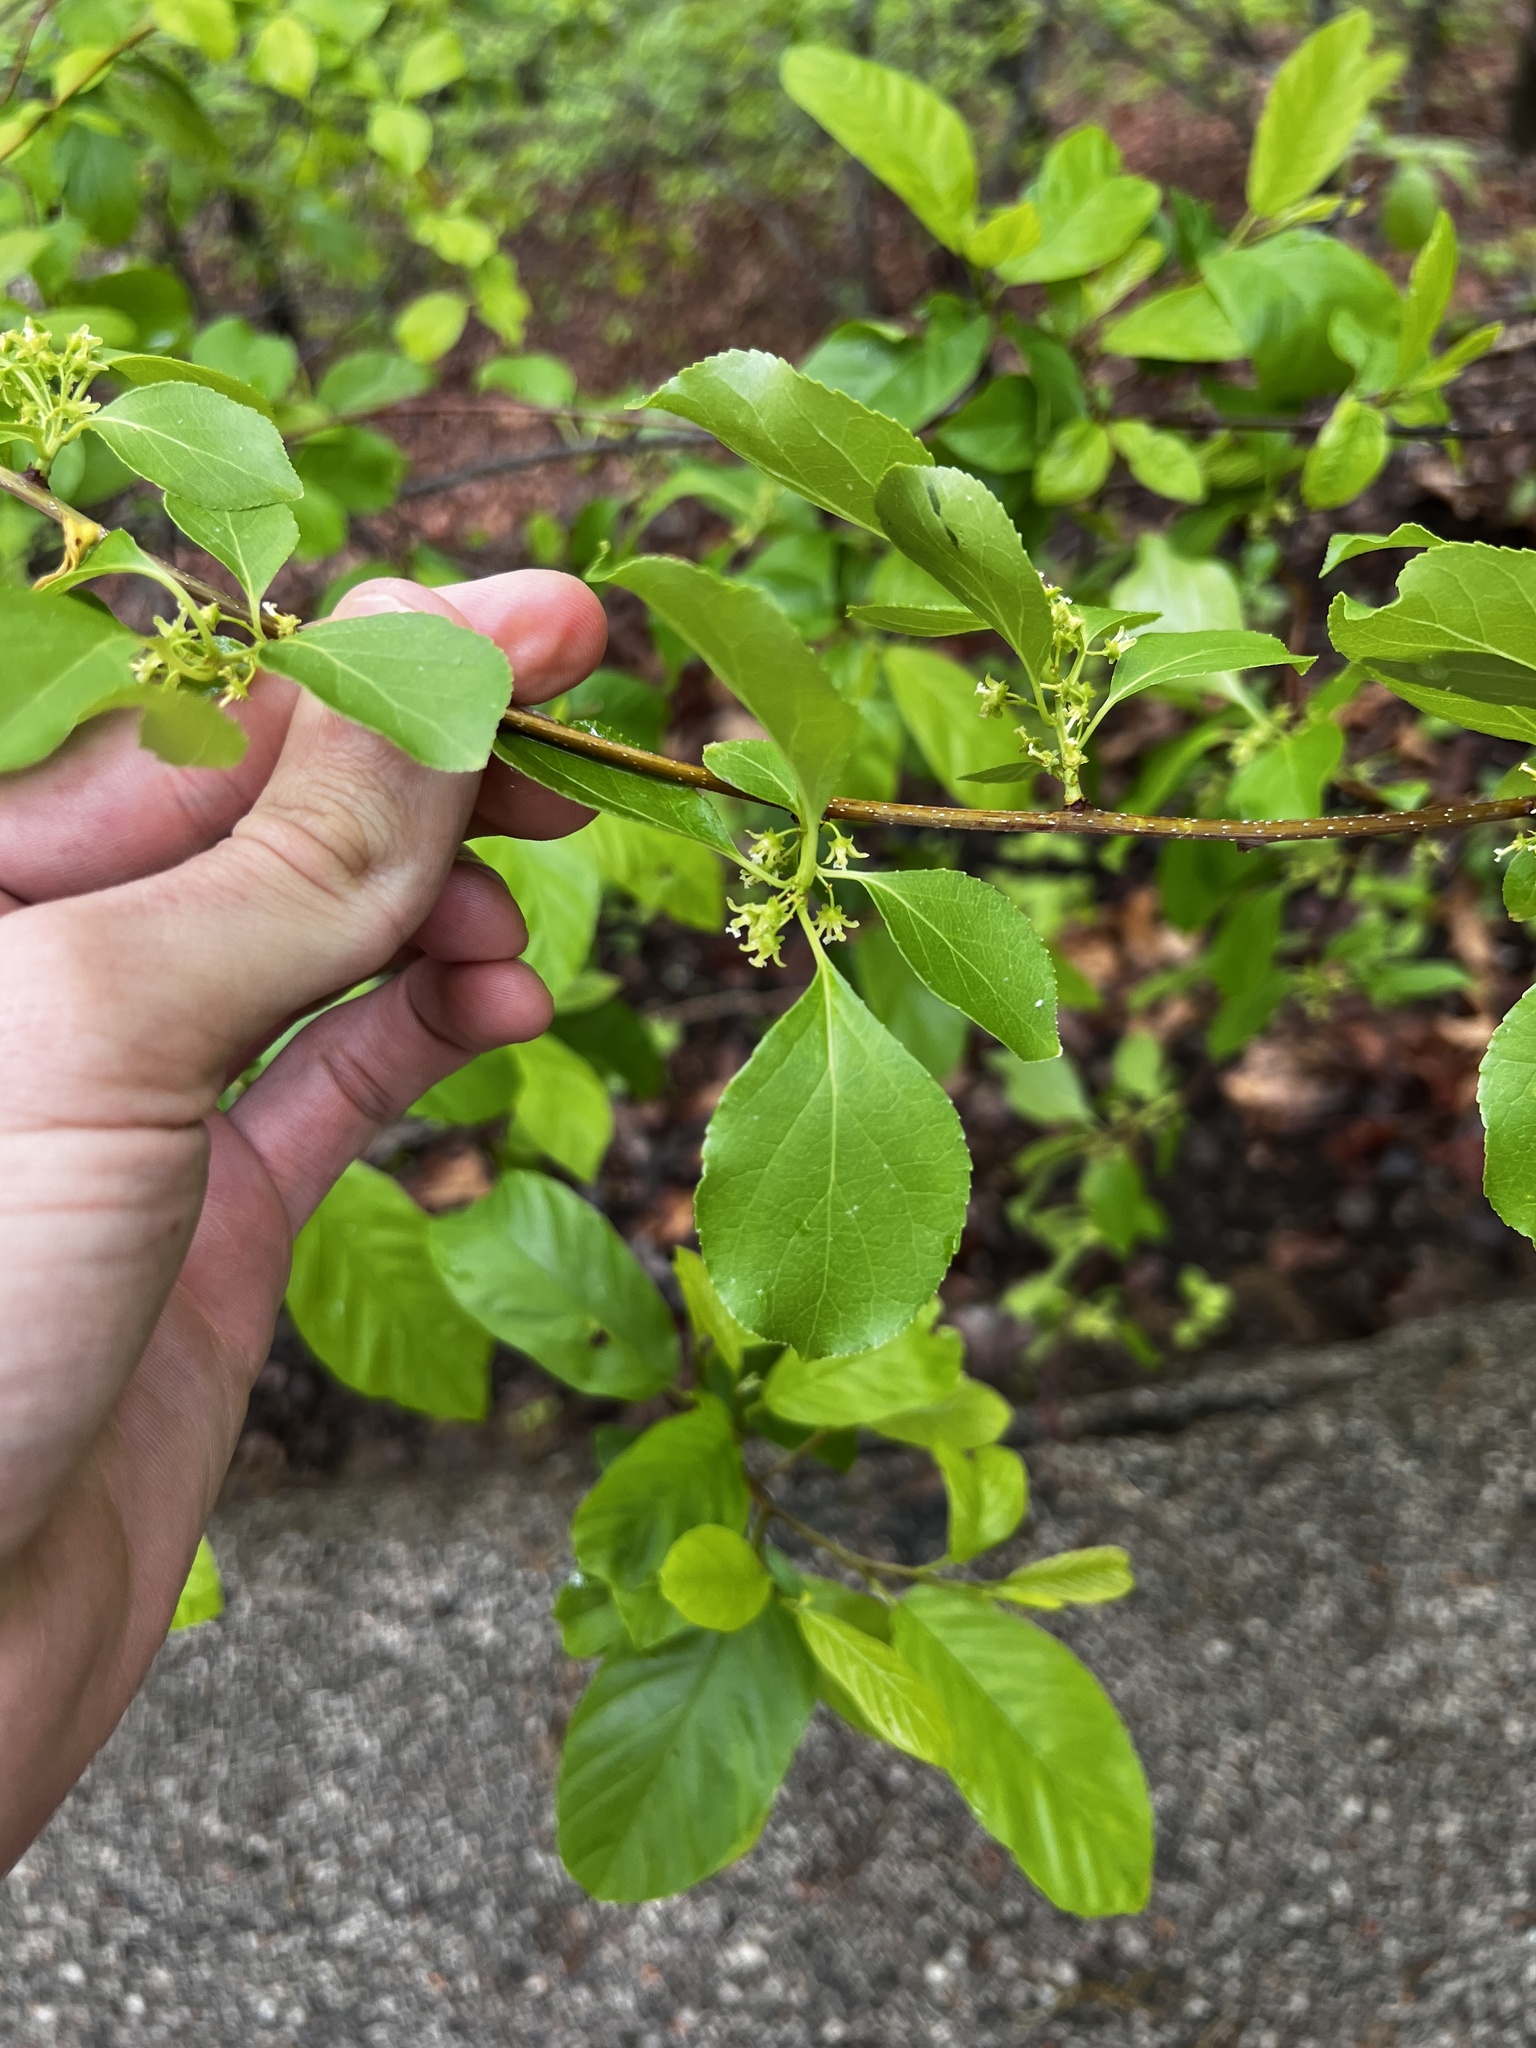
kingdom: Plantae
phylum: Tracheophyta
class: Magnoliopsida
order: Celastrales
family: Celastraceae
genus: Celastrus
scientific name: Celastrus orbiculatus
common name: Oriental bittersweet
